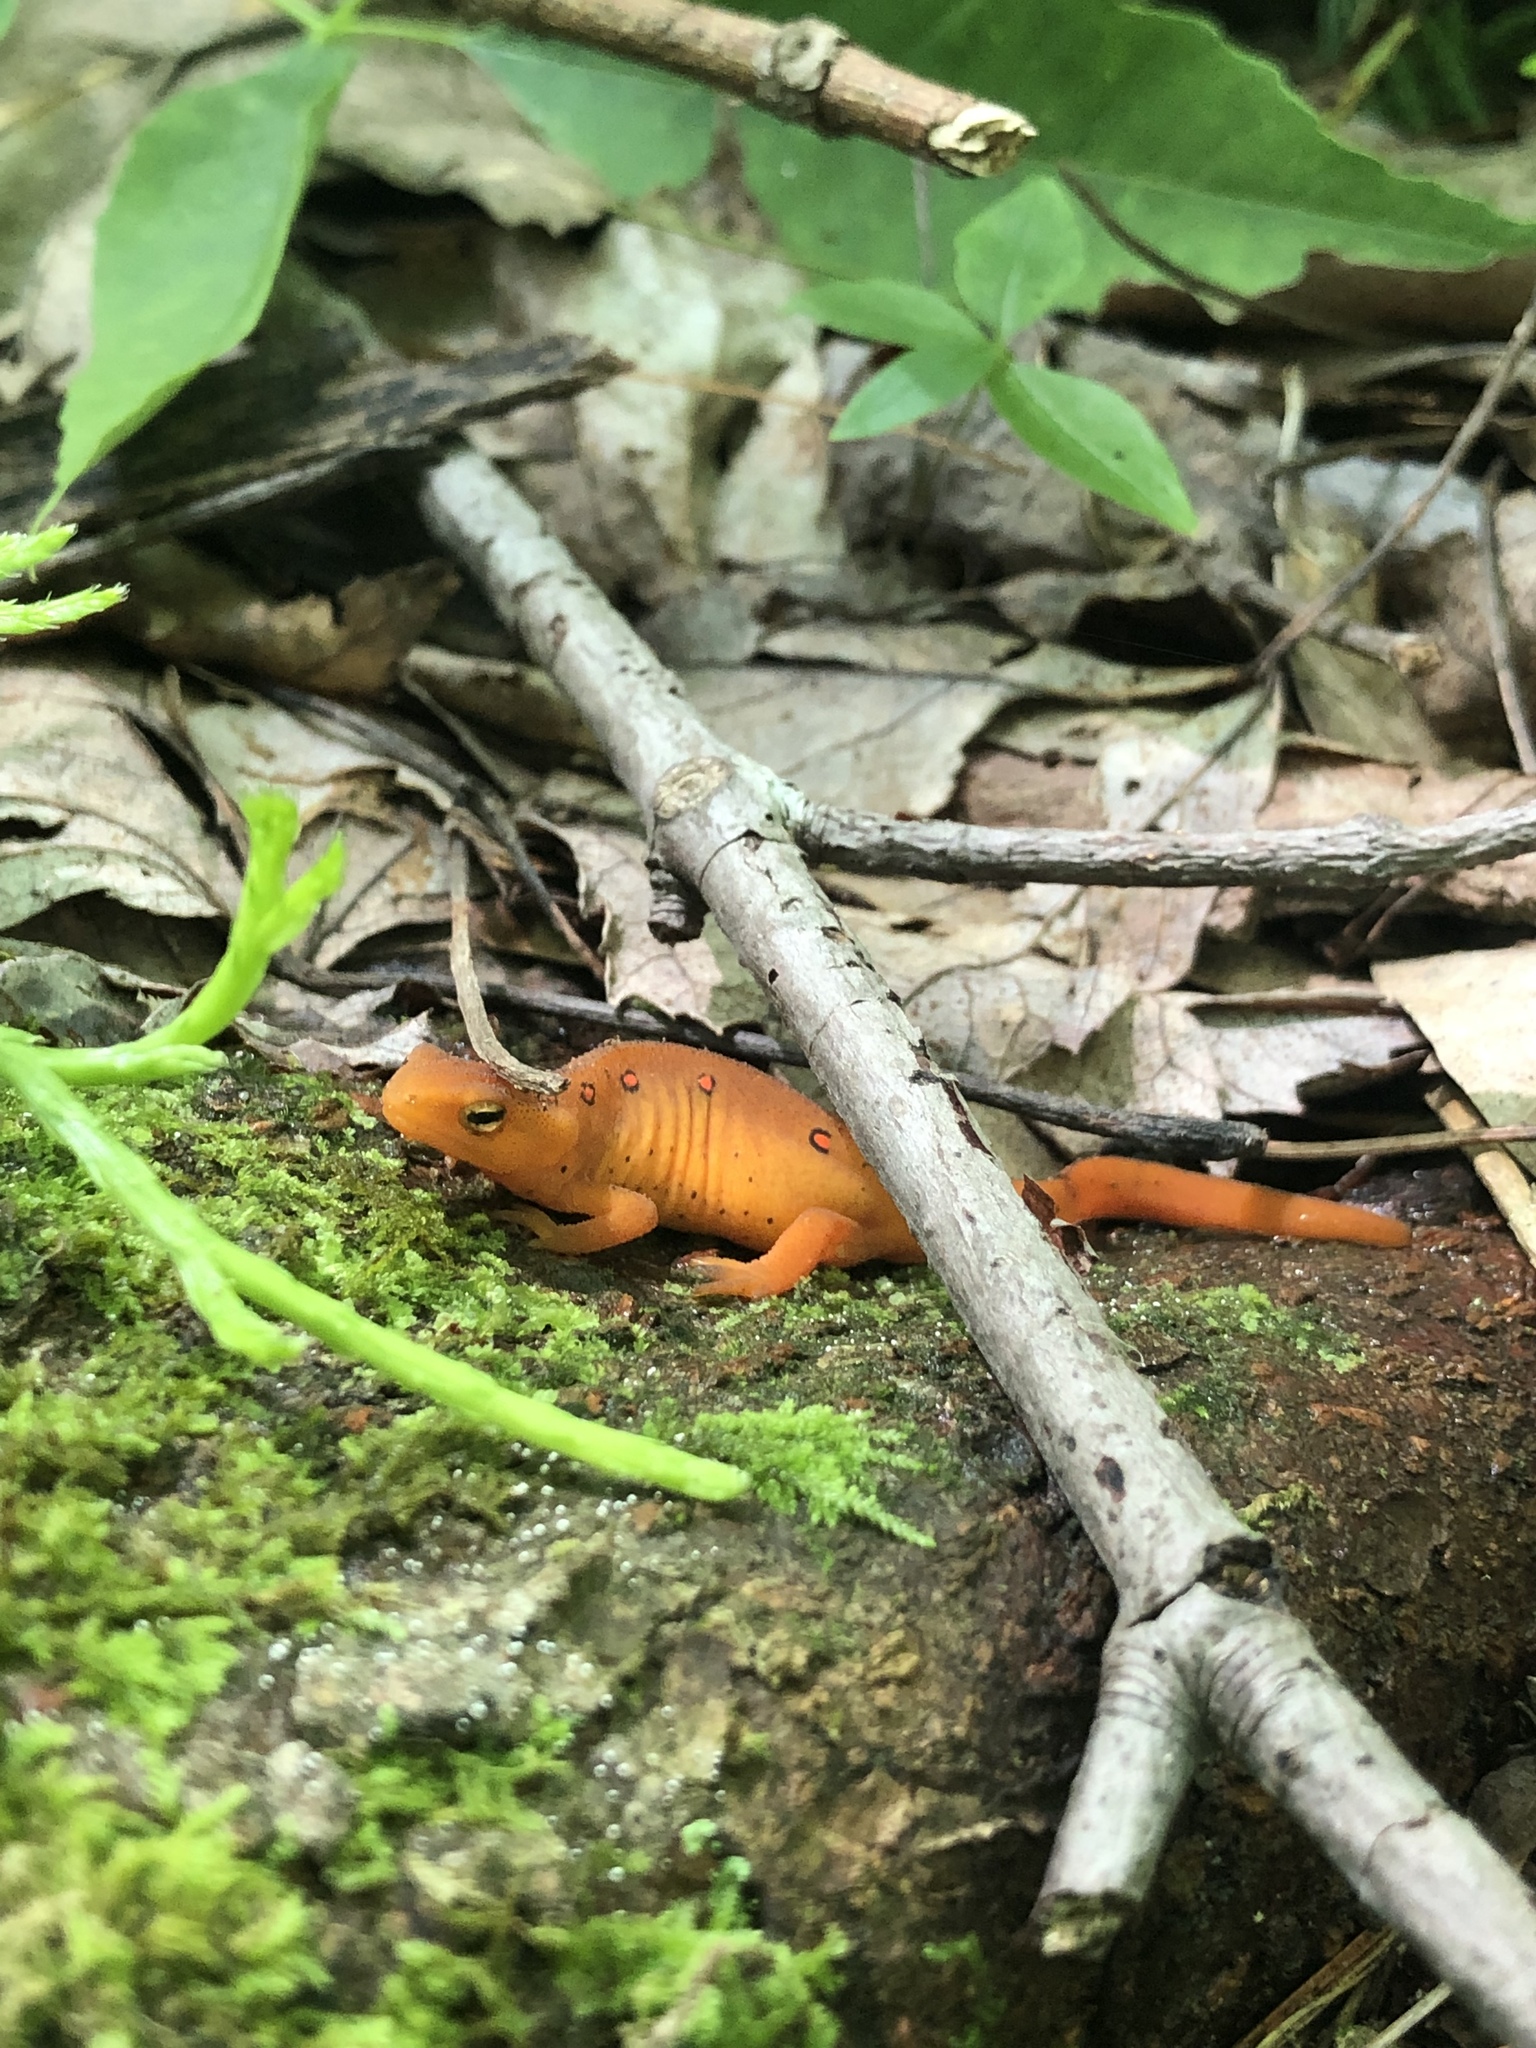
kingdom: Animalia
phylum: Chordata
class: Amphibia
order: Caudata
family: Salamandridae
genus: Notophthalmus
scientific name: Notophthalmus viridescens
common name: Eastern newt
